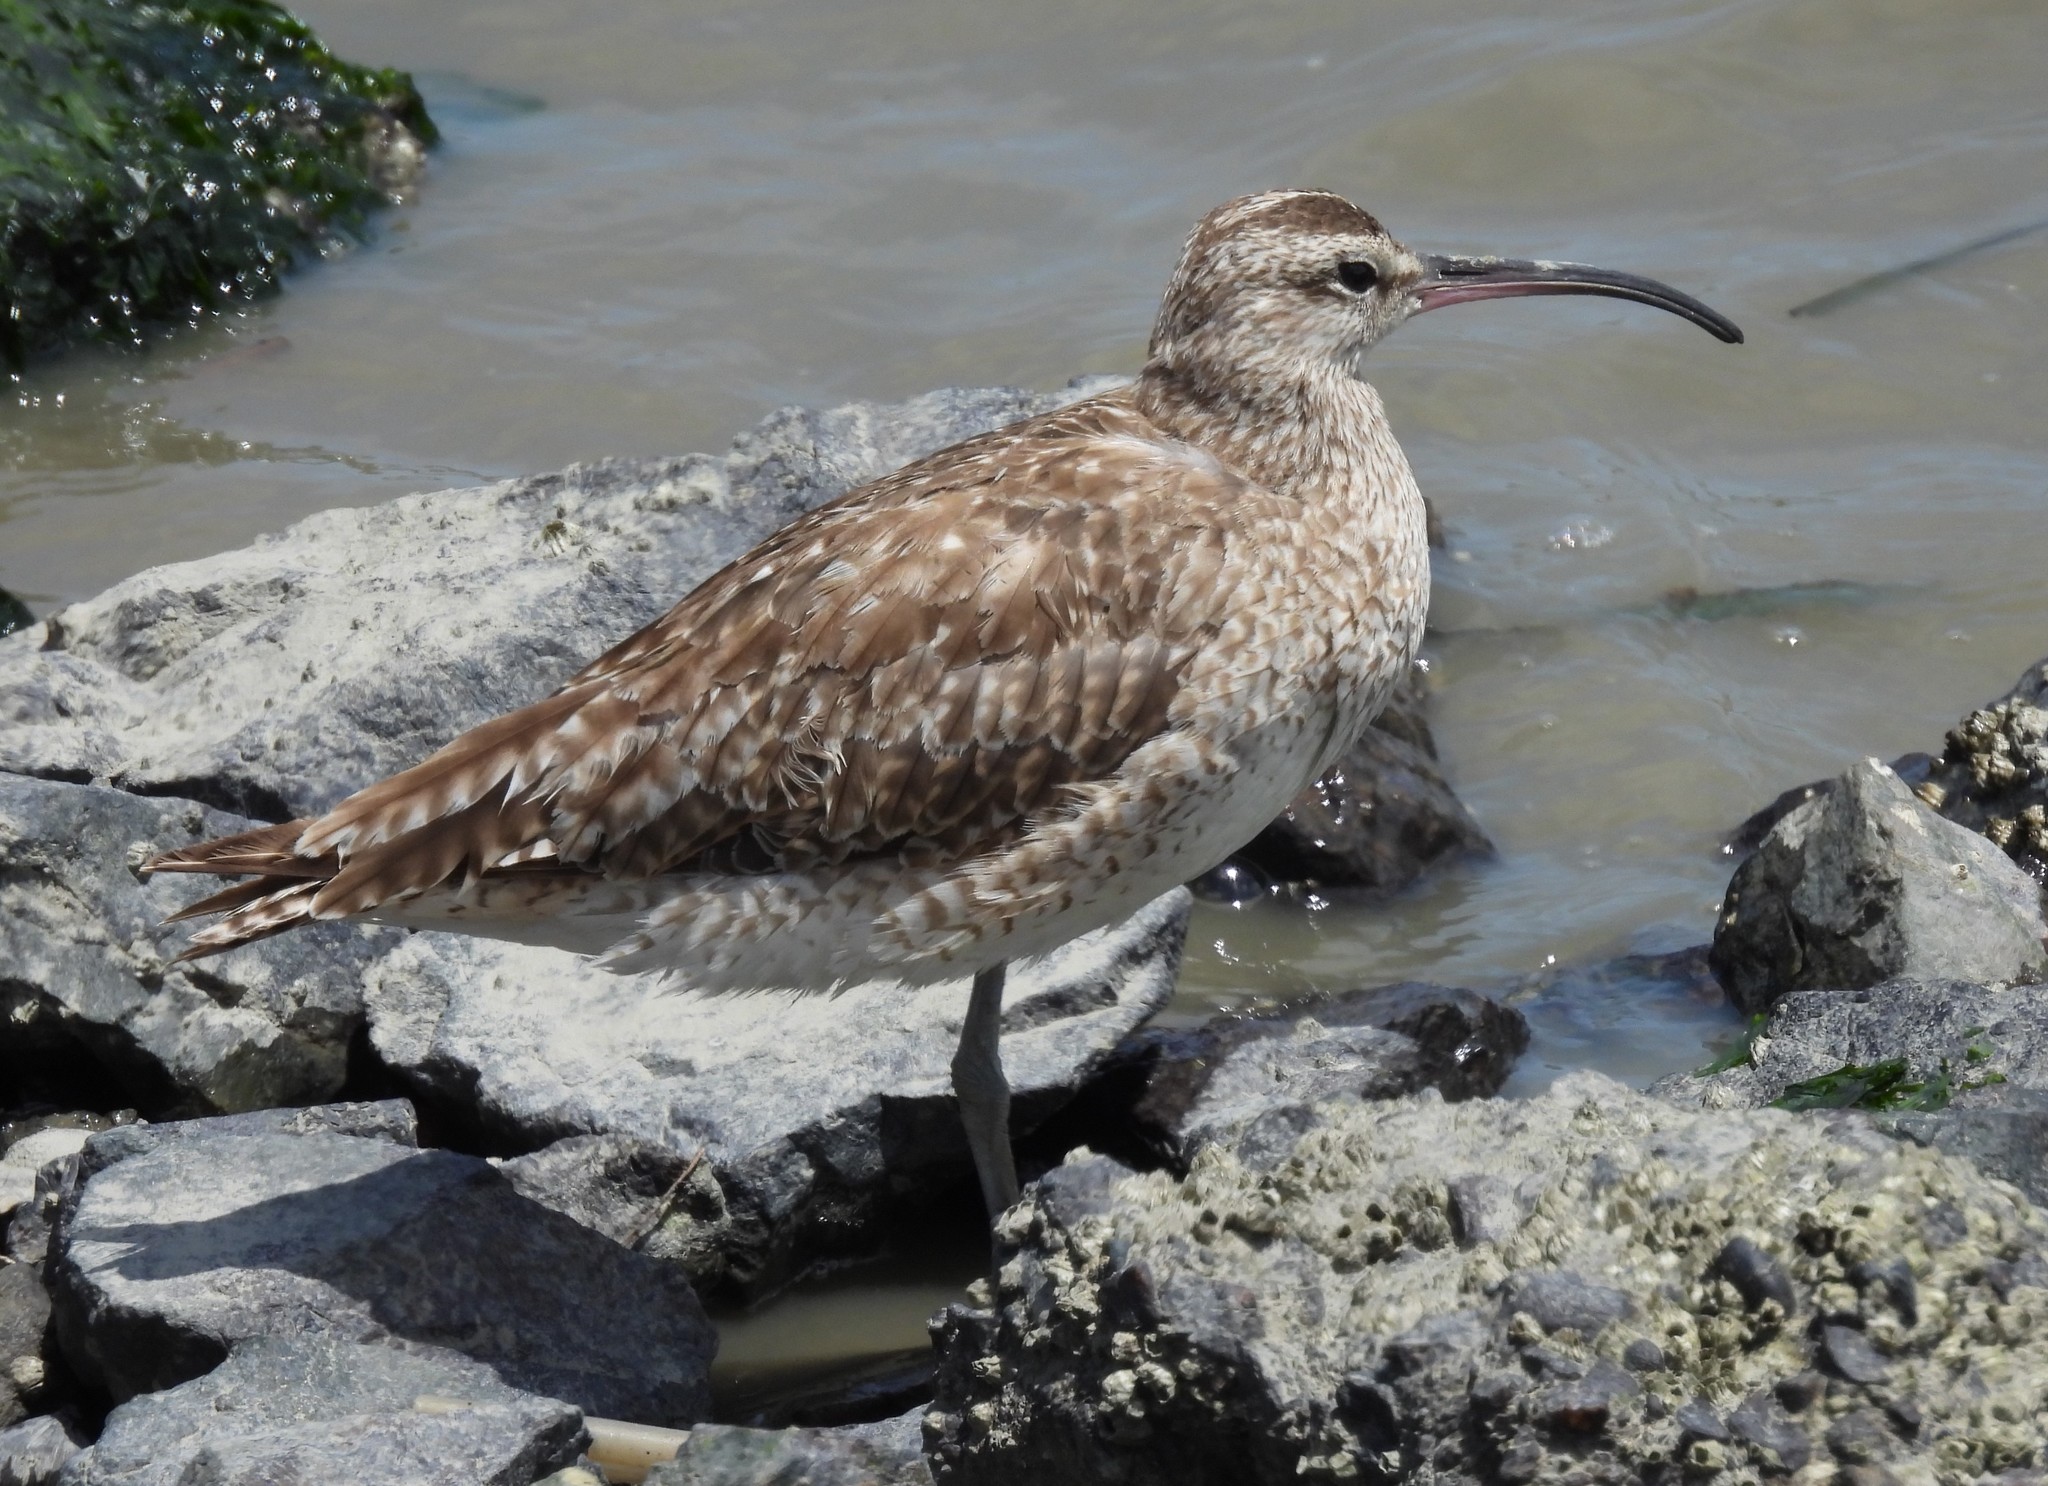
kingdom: Animalia
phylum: Chordata
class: Aves
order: Charadriiformes
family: Scolopacidae
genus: Numenius
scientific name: Numenius phaeopus
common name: Whimbrel
